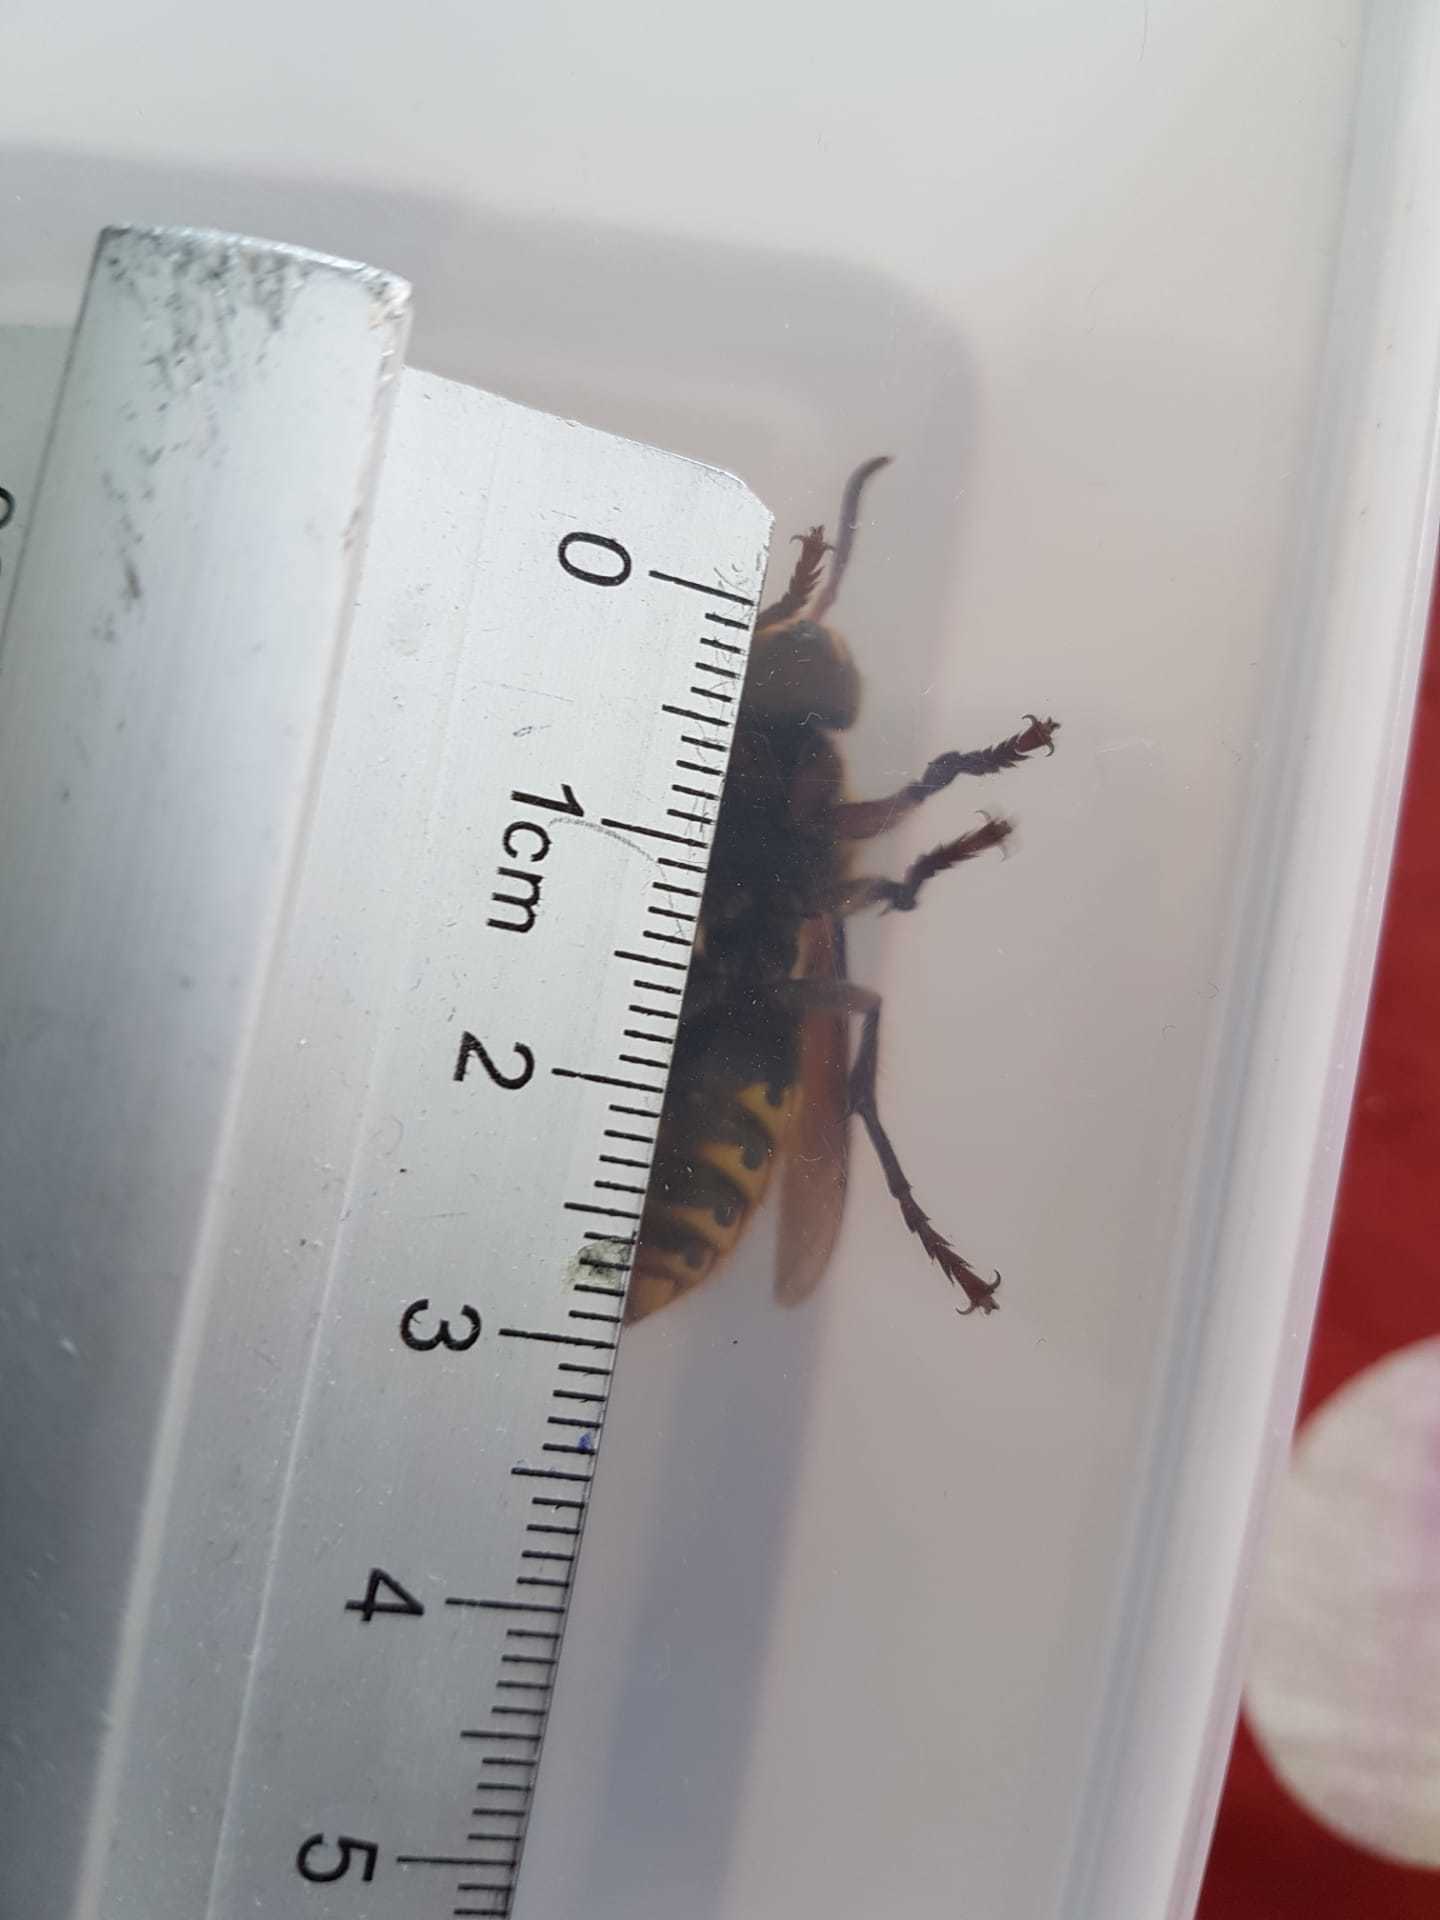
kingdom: Animalia
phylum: Arthropoda
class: Insecta
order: Hymenoptera
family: Vespidae
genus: Vespa
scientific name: Vespa crabro
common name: Hornet
